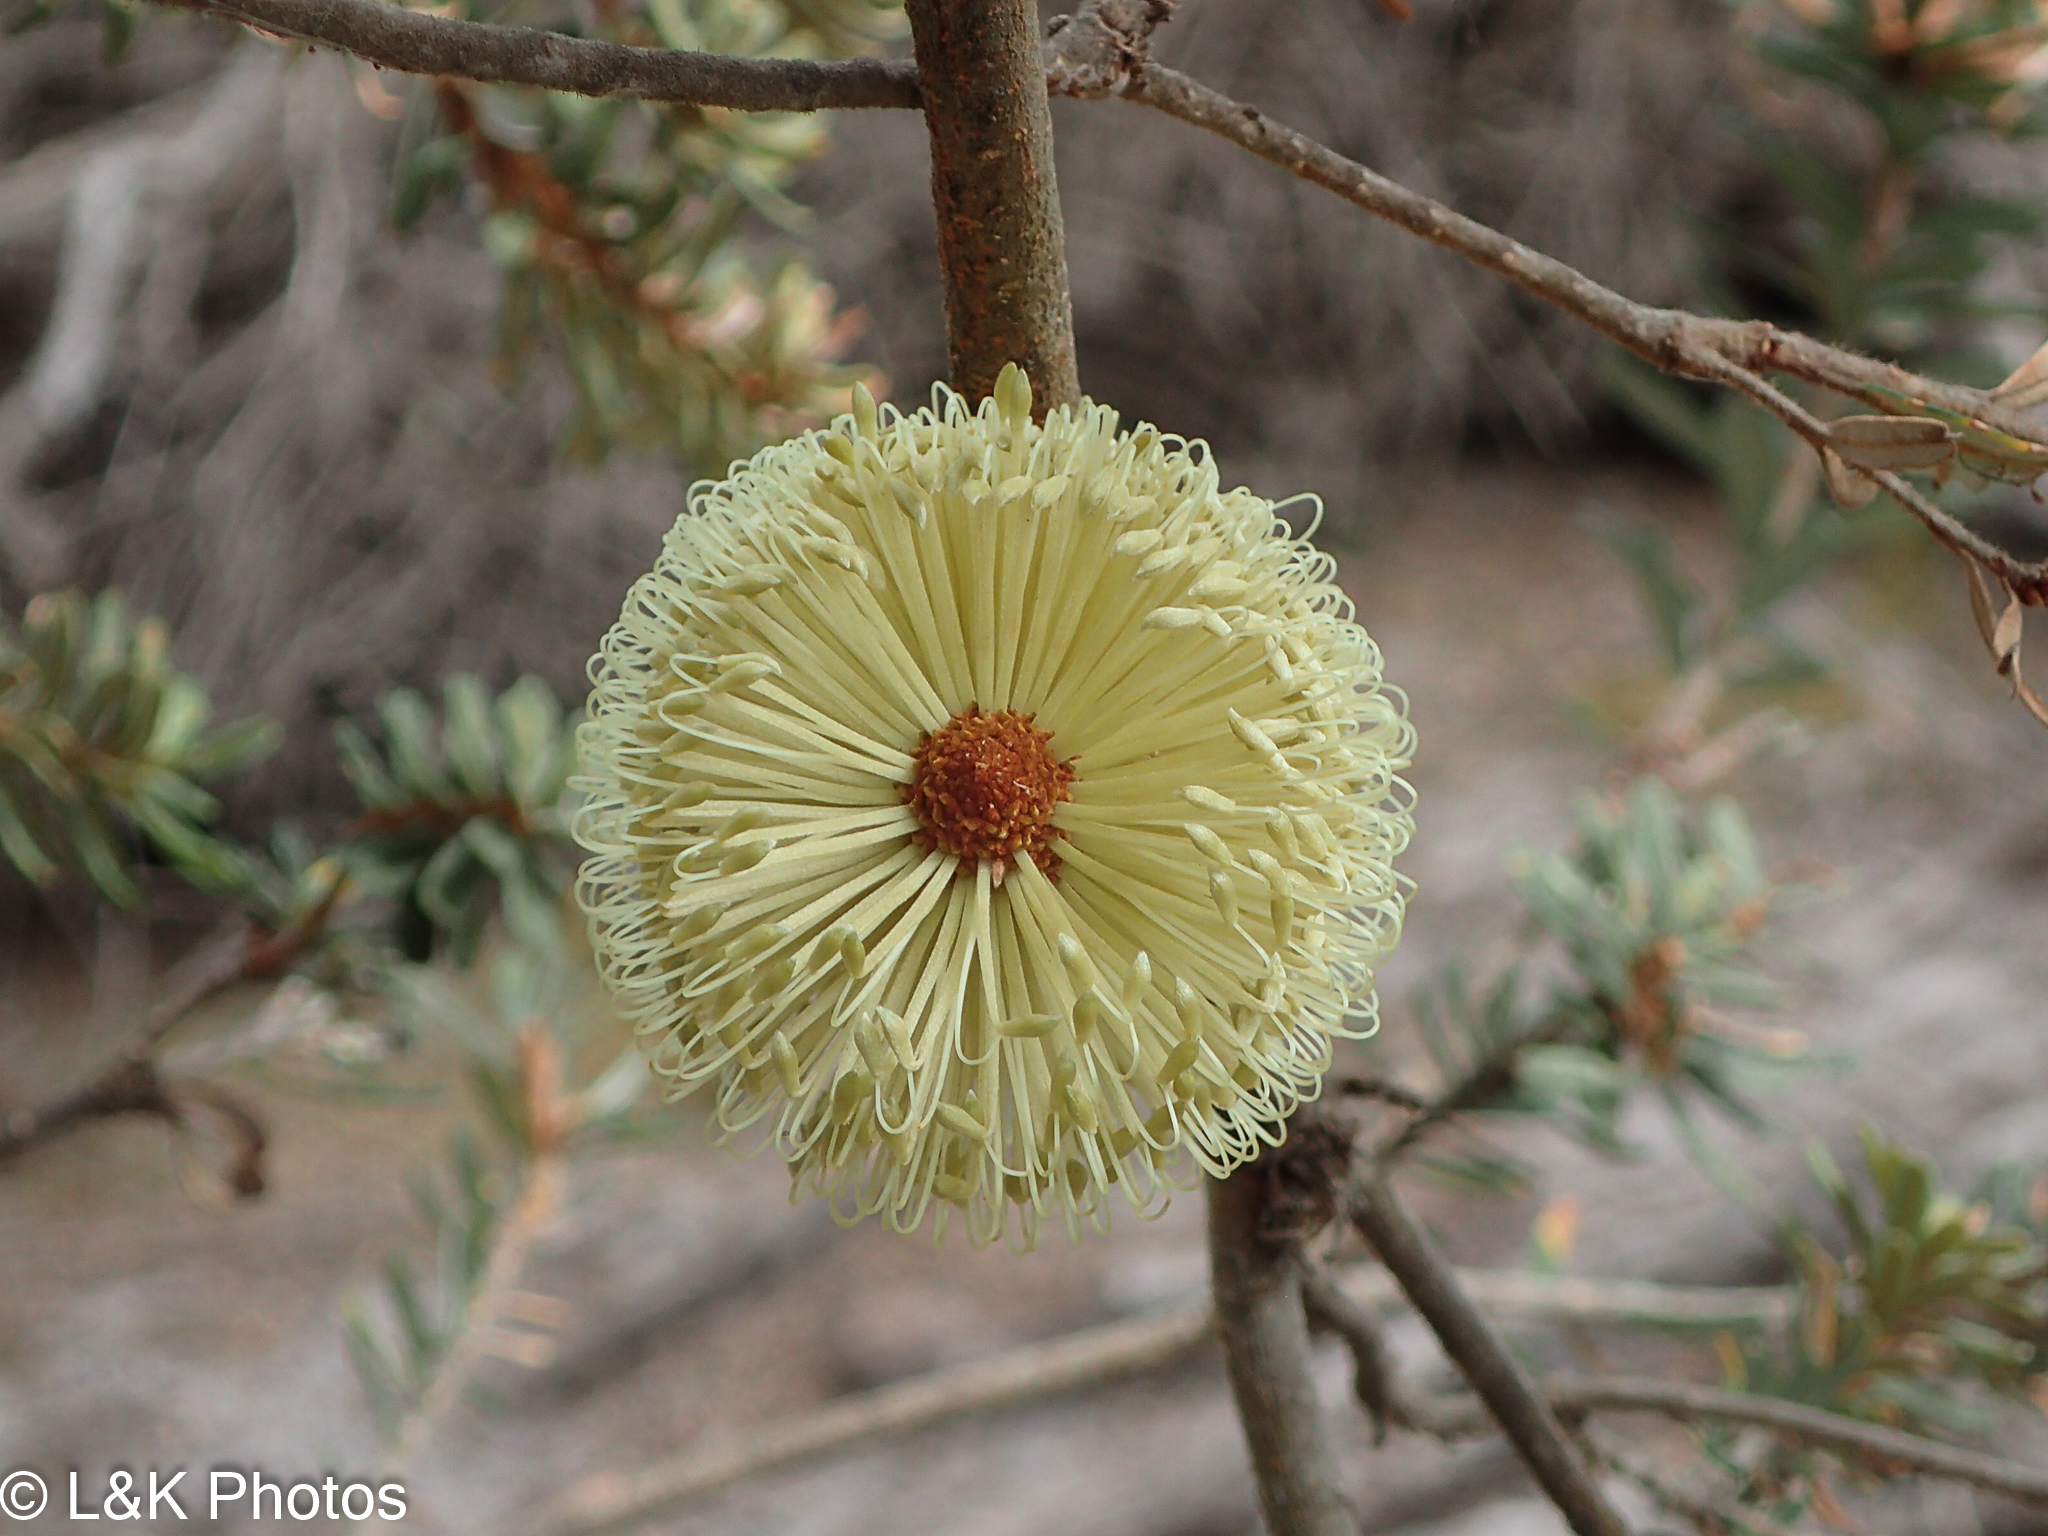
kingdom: Plantae
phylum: Tracheophyta
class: Magnoliopsida
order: Proteales
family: Proteaceae
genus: Banksia
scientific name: Banksia marginata
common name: Silver banksia
